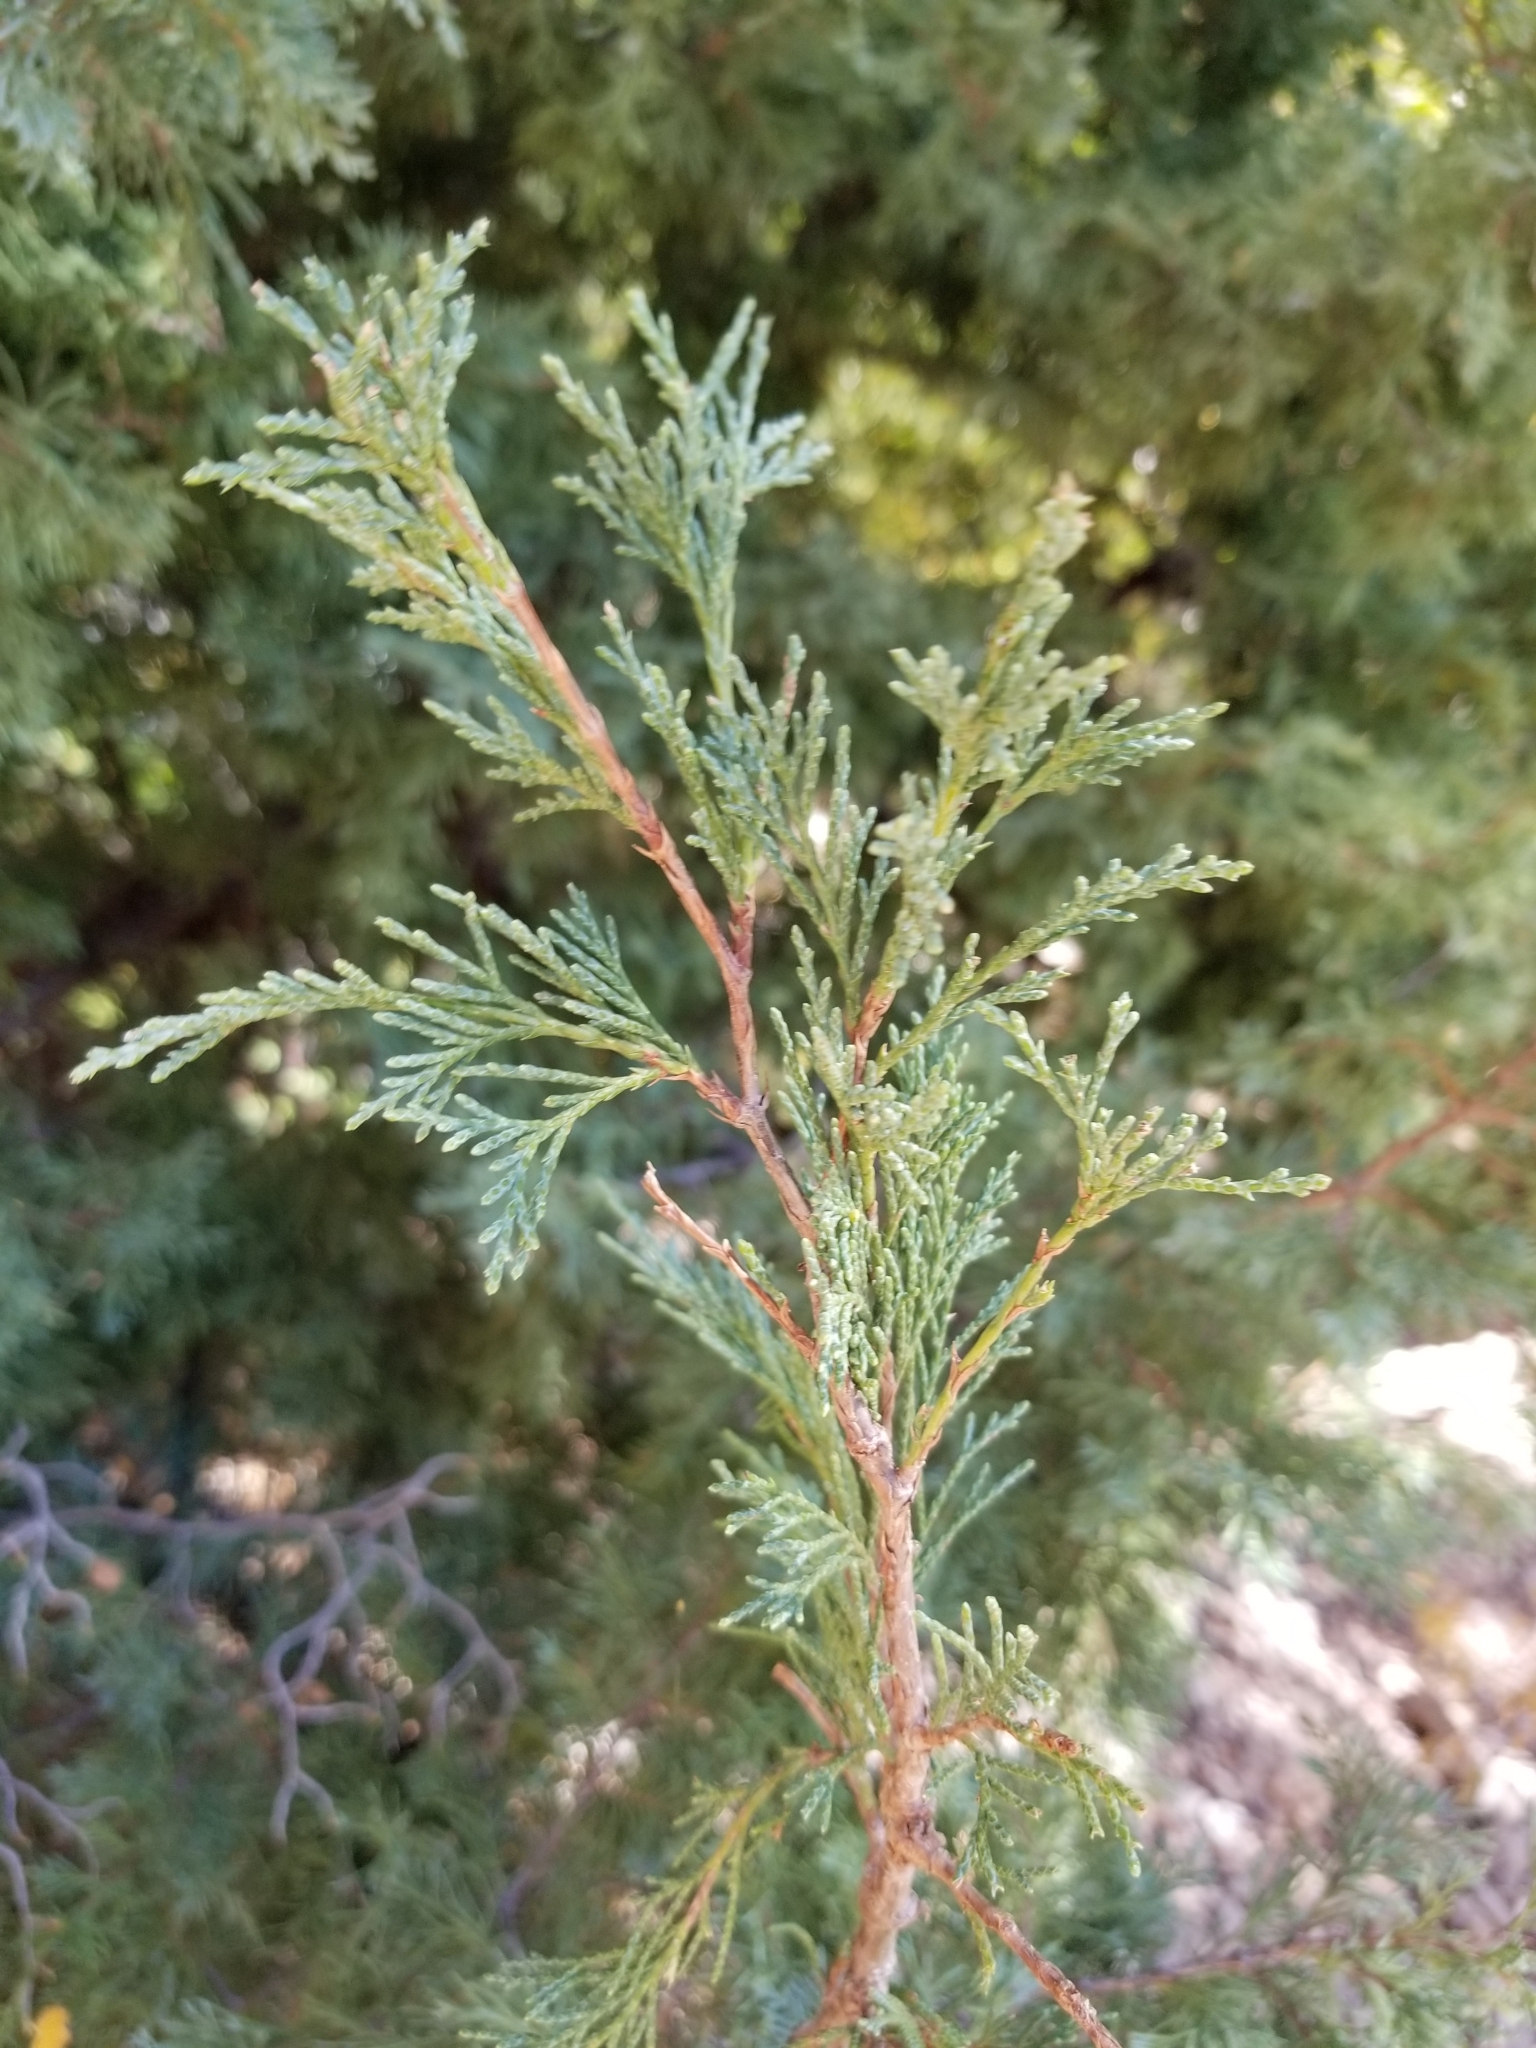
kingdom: Plantae
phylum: Tracheophyta
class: Pinopsida
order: Pinales
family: Cupressaceae
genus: Juniperus
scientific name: Juniperus scopulorum
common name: Rocky mountain juniper
